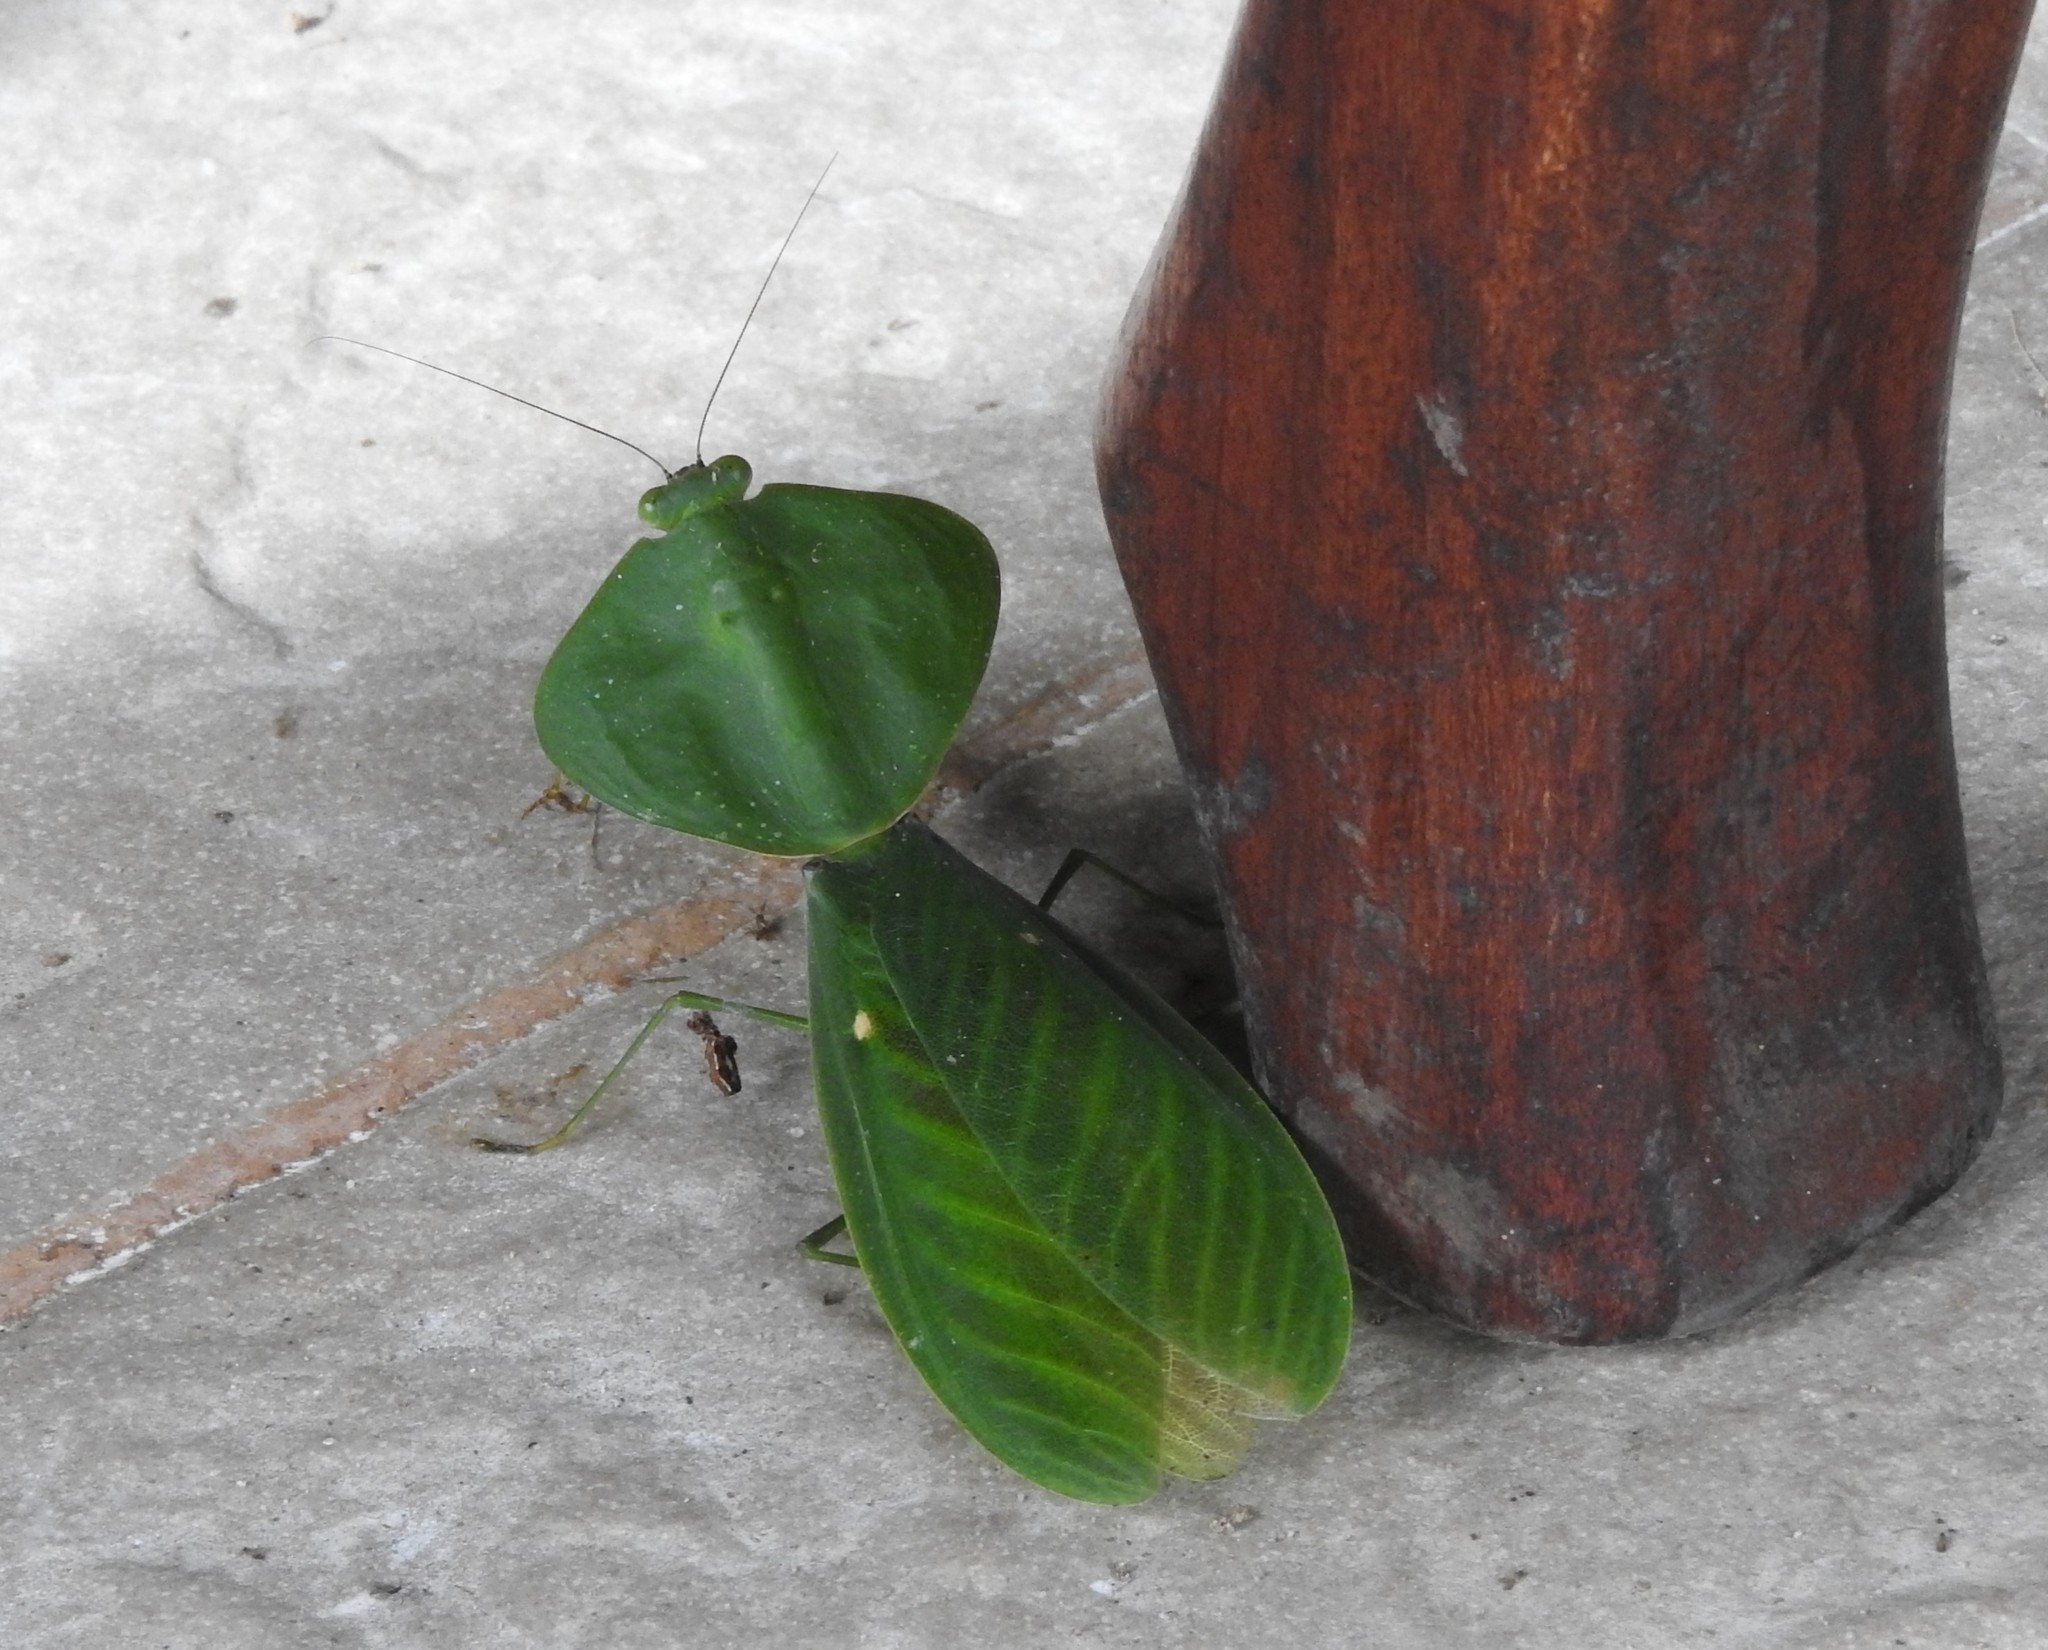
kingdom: Animalia
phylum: Arthropoda
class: Insecta
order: Mantodea
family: Mantidae
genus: Choeradodis
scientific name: Choeradodis rhombicollis
